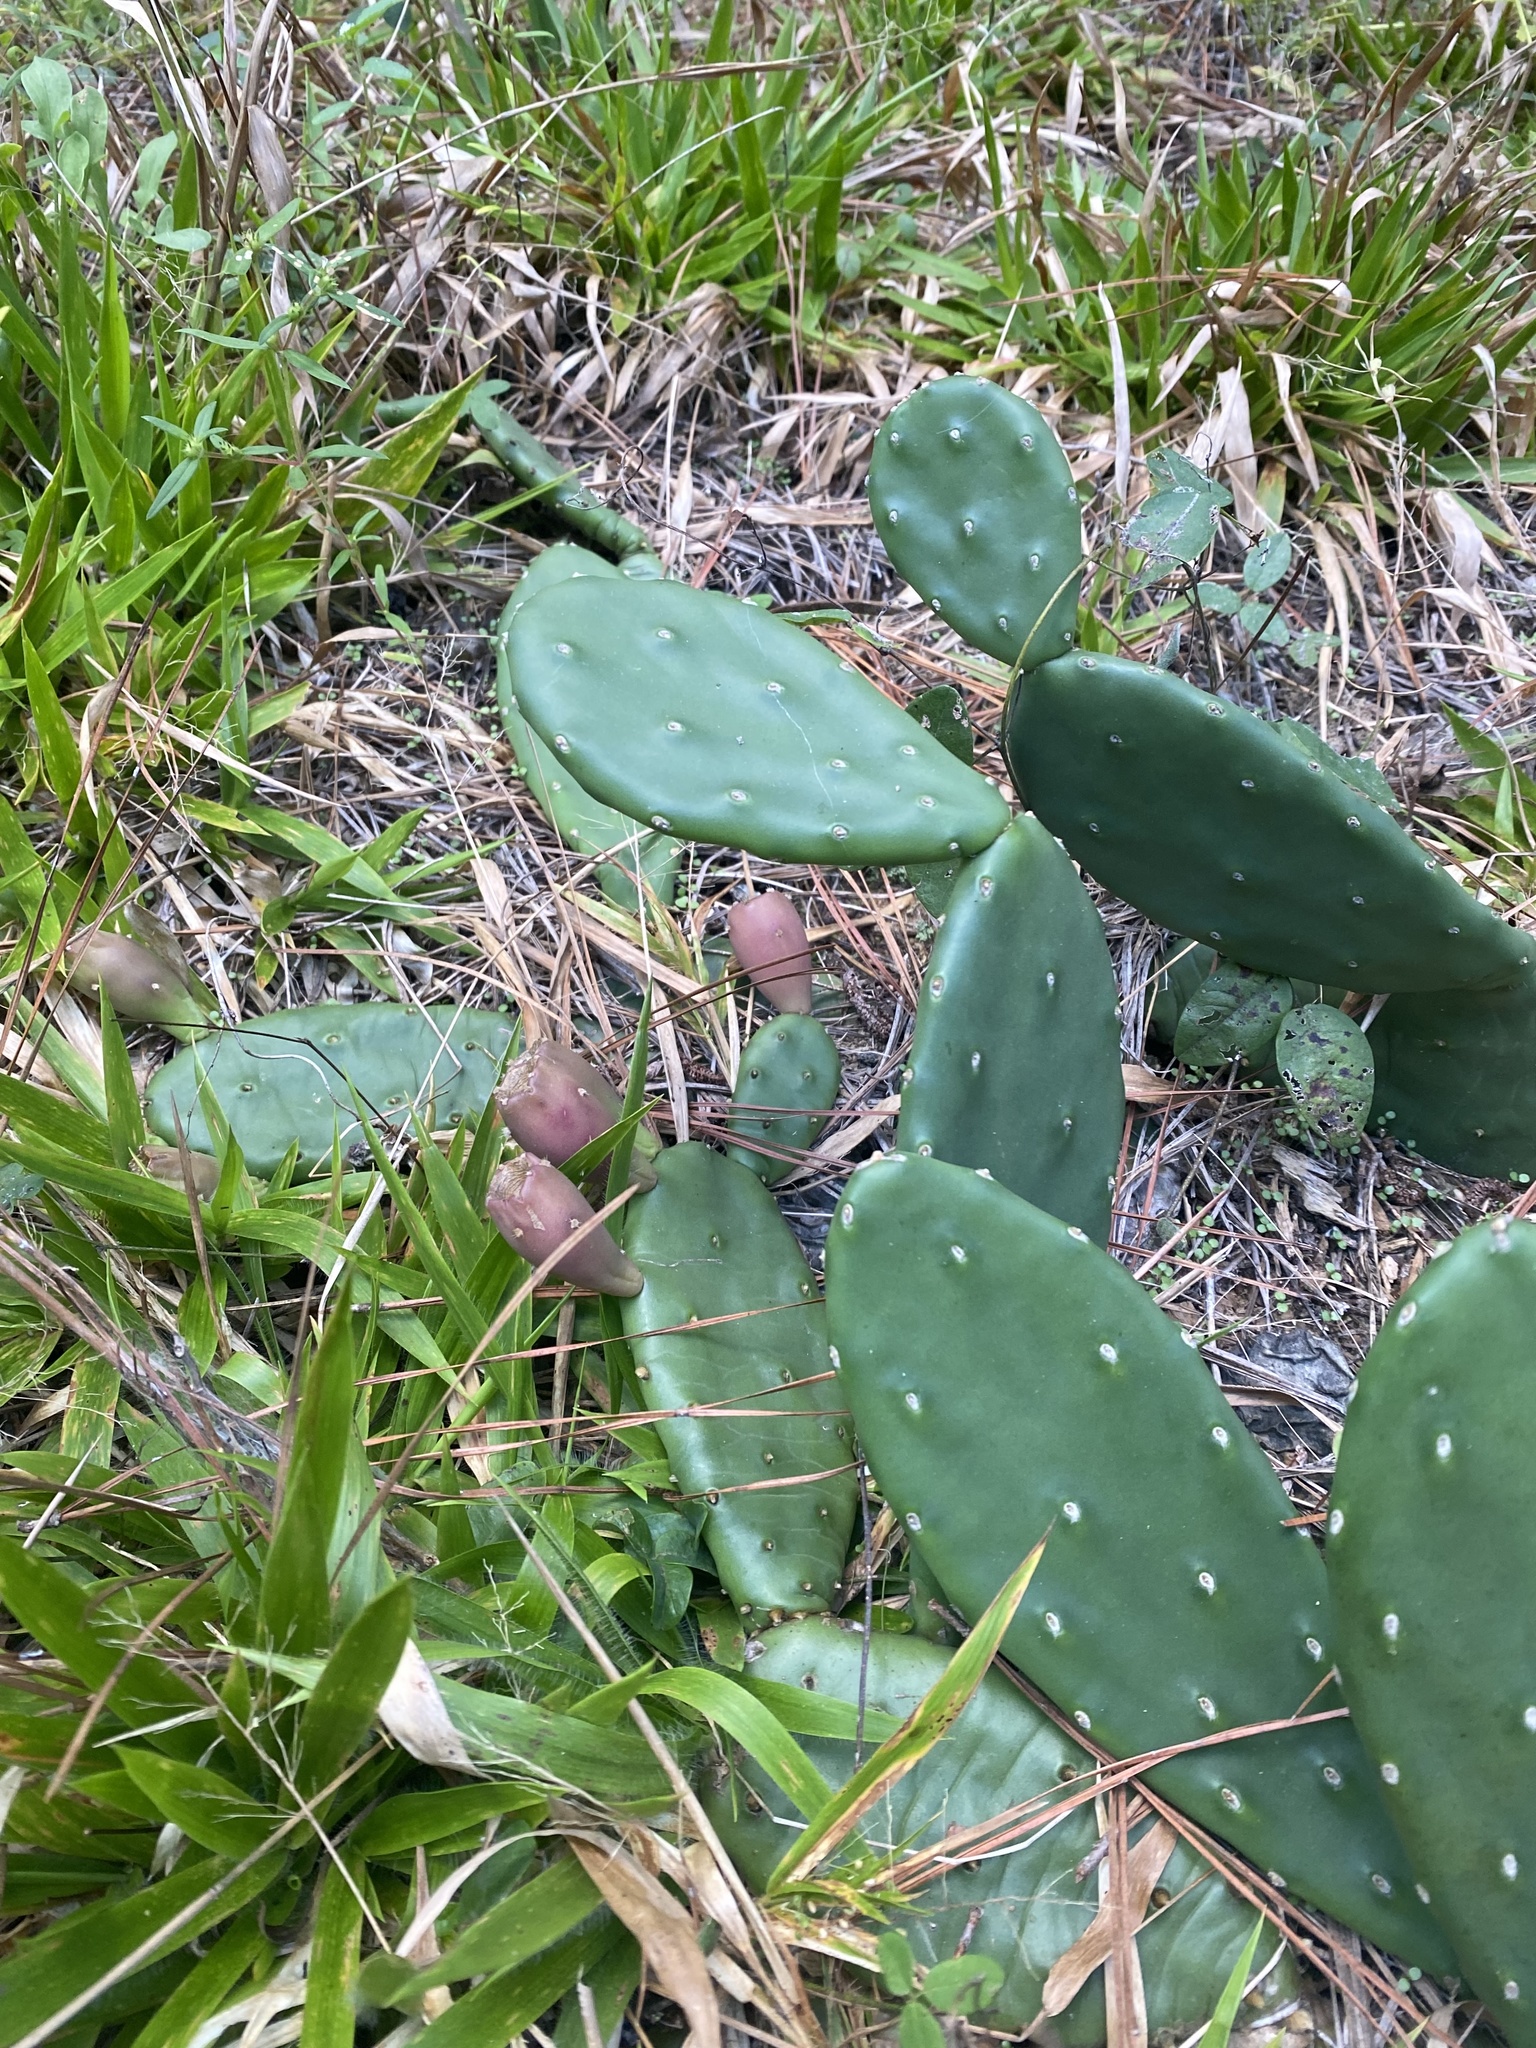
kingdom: Plantae
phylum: Tracheophyta
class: Magnoliopsida
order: Caryophyllales
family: Cactaceae
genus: Opuntia
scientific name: Opuntia humifusa
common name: Eastern prickly-pear
